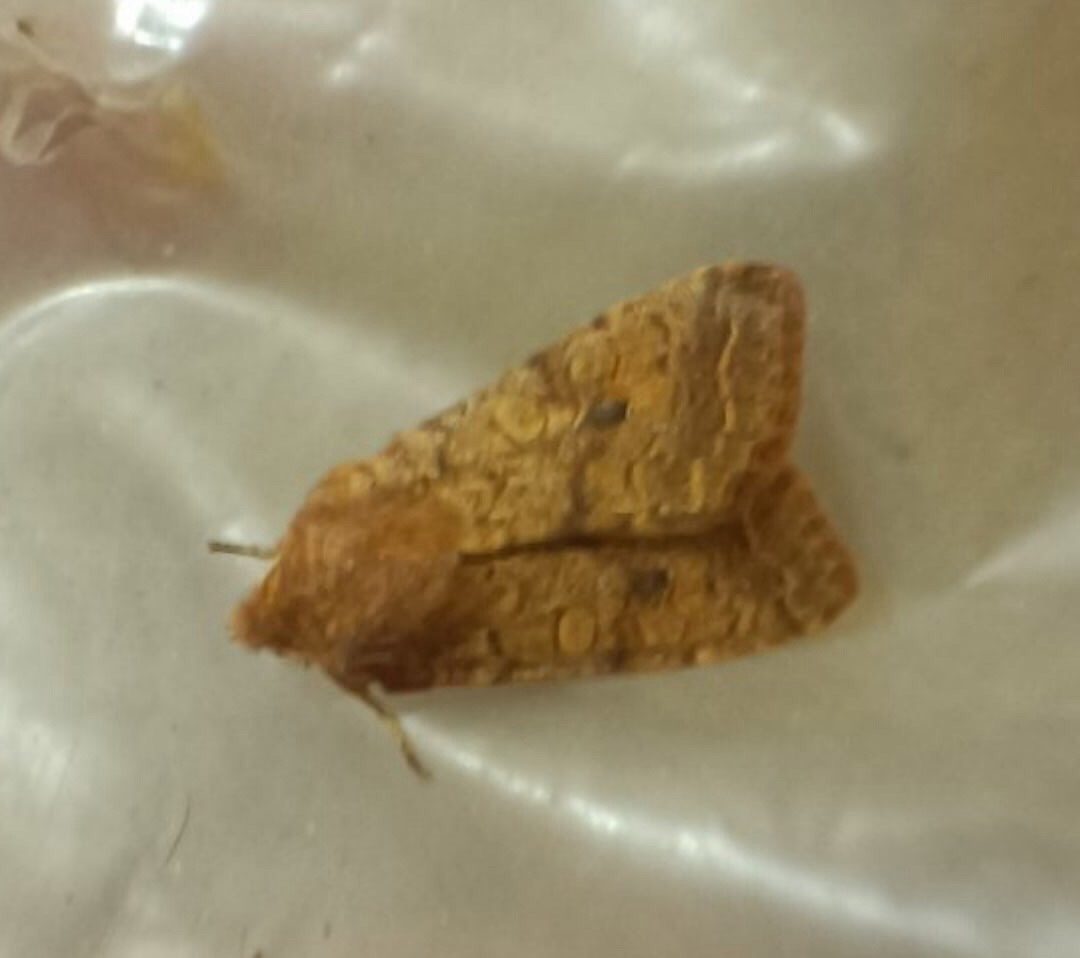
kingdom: Animalia
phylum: Arthropoda
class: Insecta
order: Lepidoptera
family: Noctuidae
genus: Sunira
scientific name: Sunira circellaris
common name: Brick
